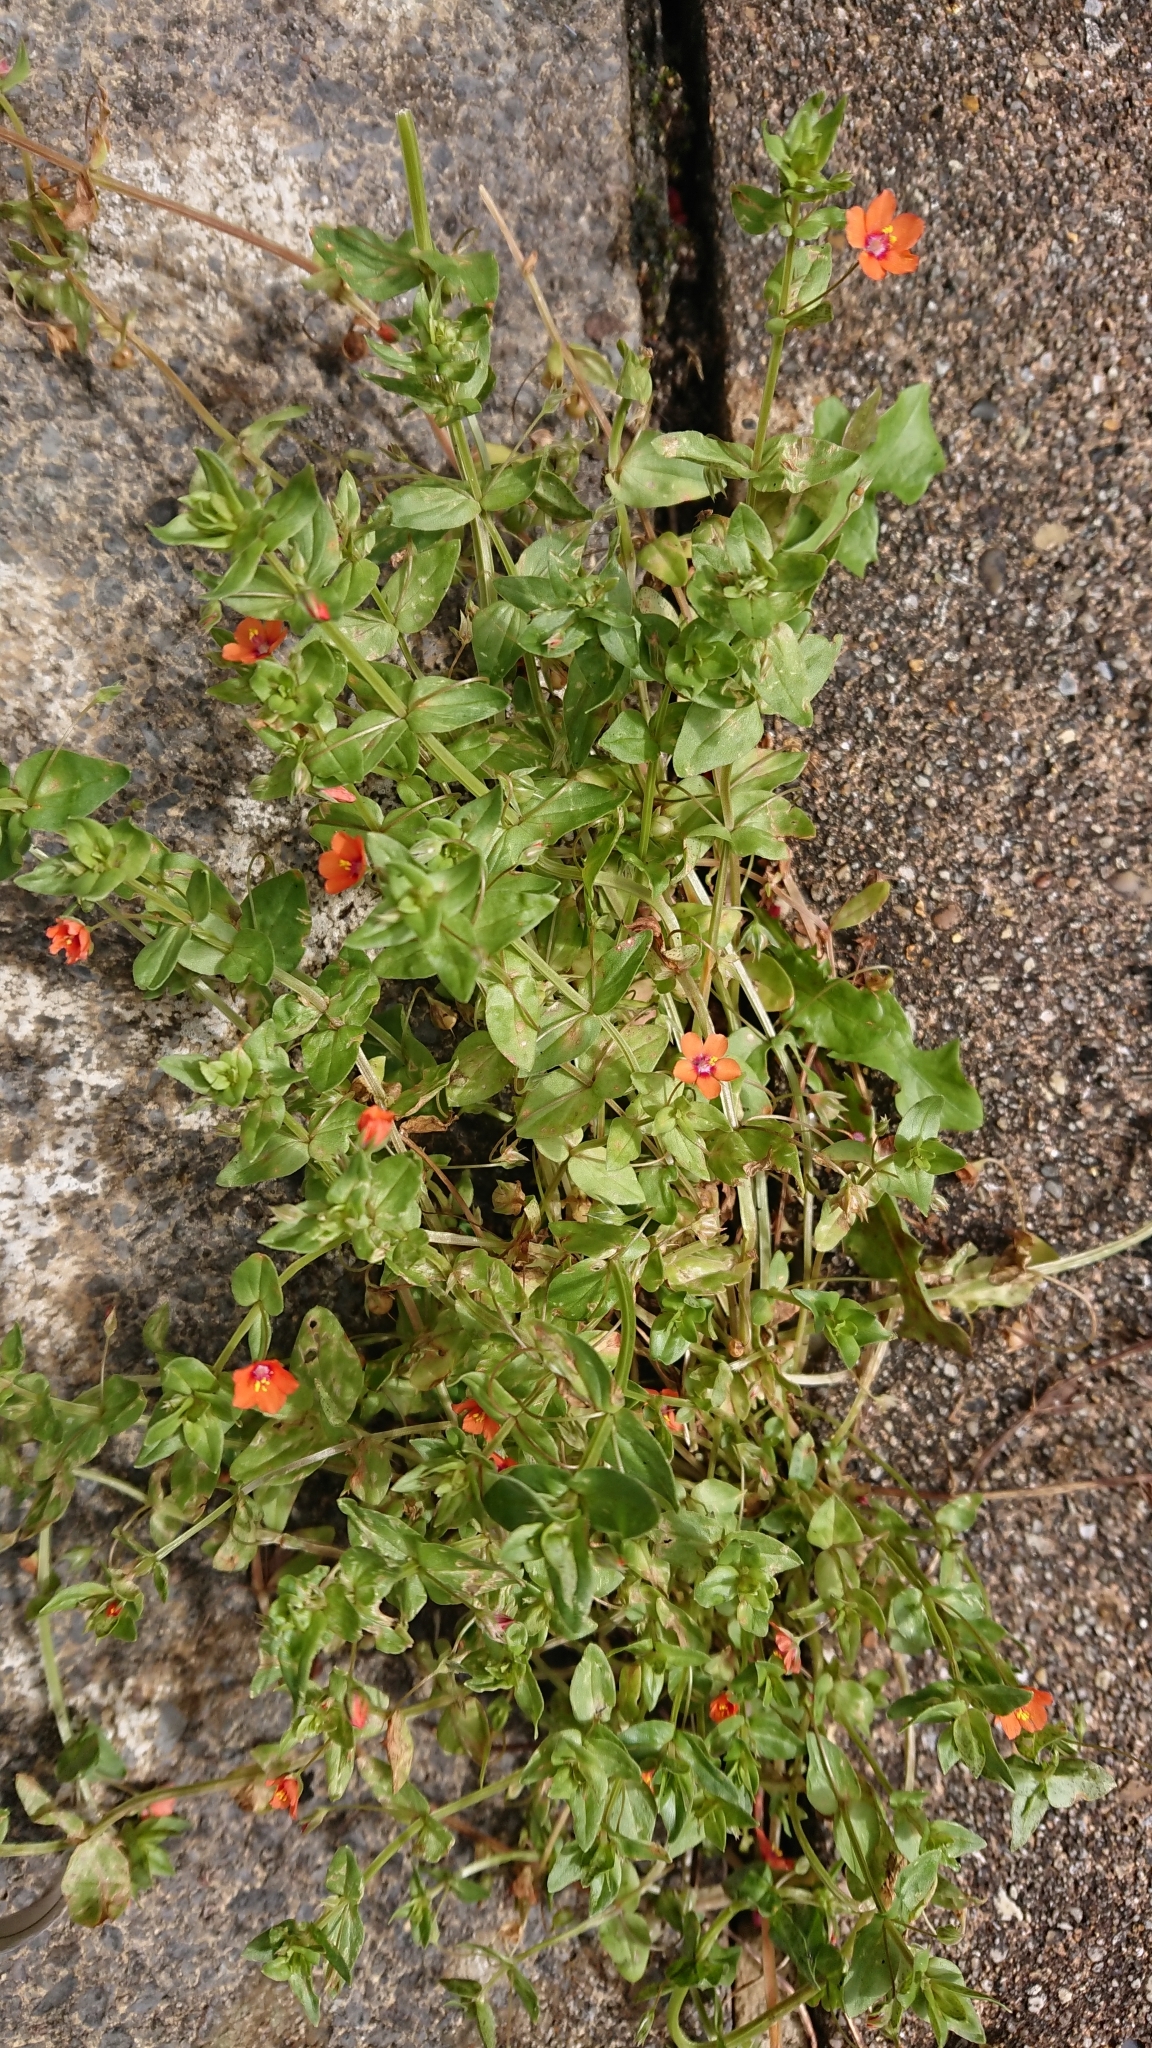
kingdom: Plantae
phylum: Tracheophyta
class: Magnoliopsida
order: Ericales
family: Primulaceae
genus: Lysimachia
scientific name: Lysimachia arvensis
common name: Scarlet pimpernel
